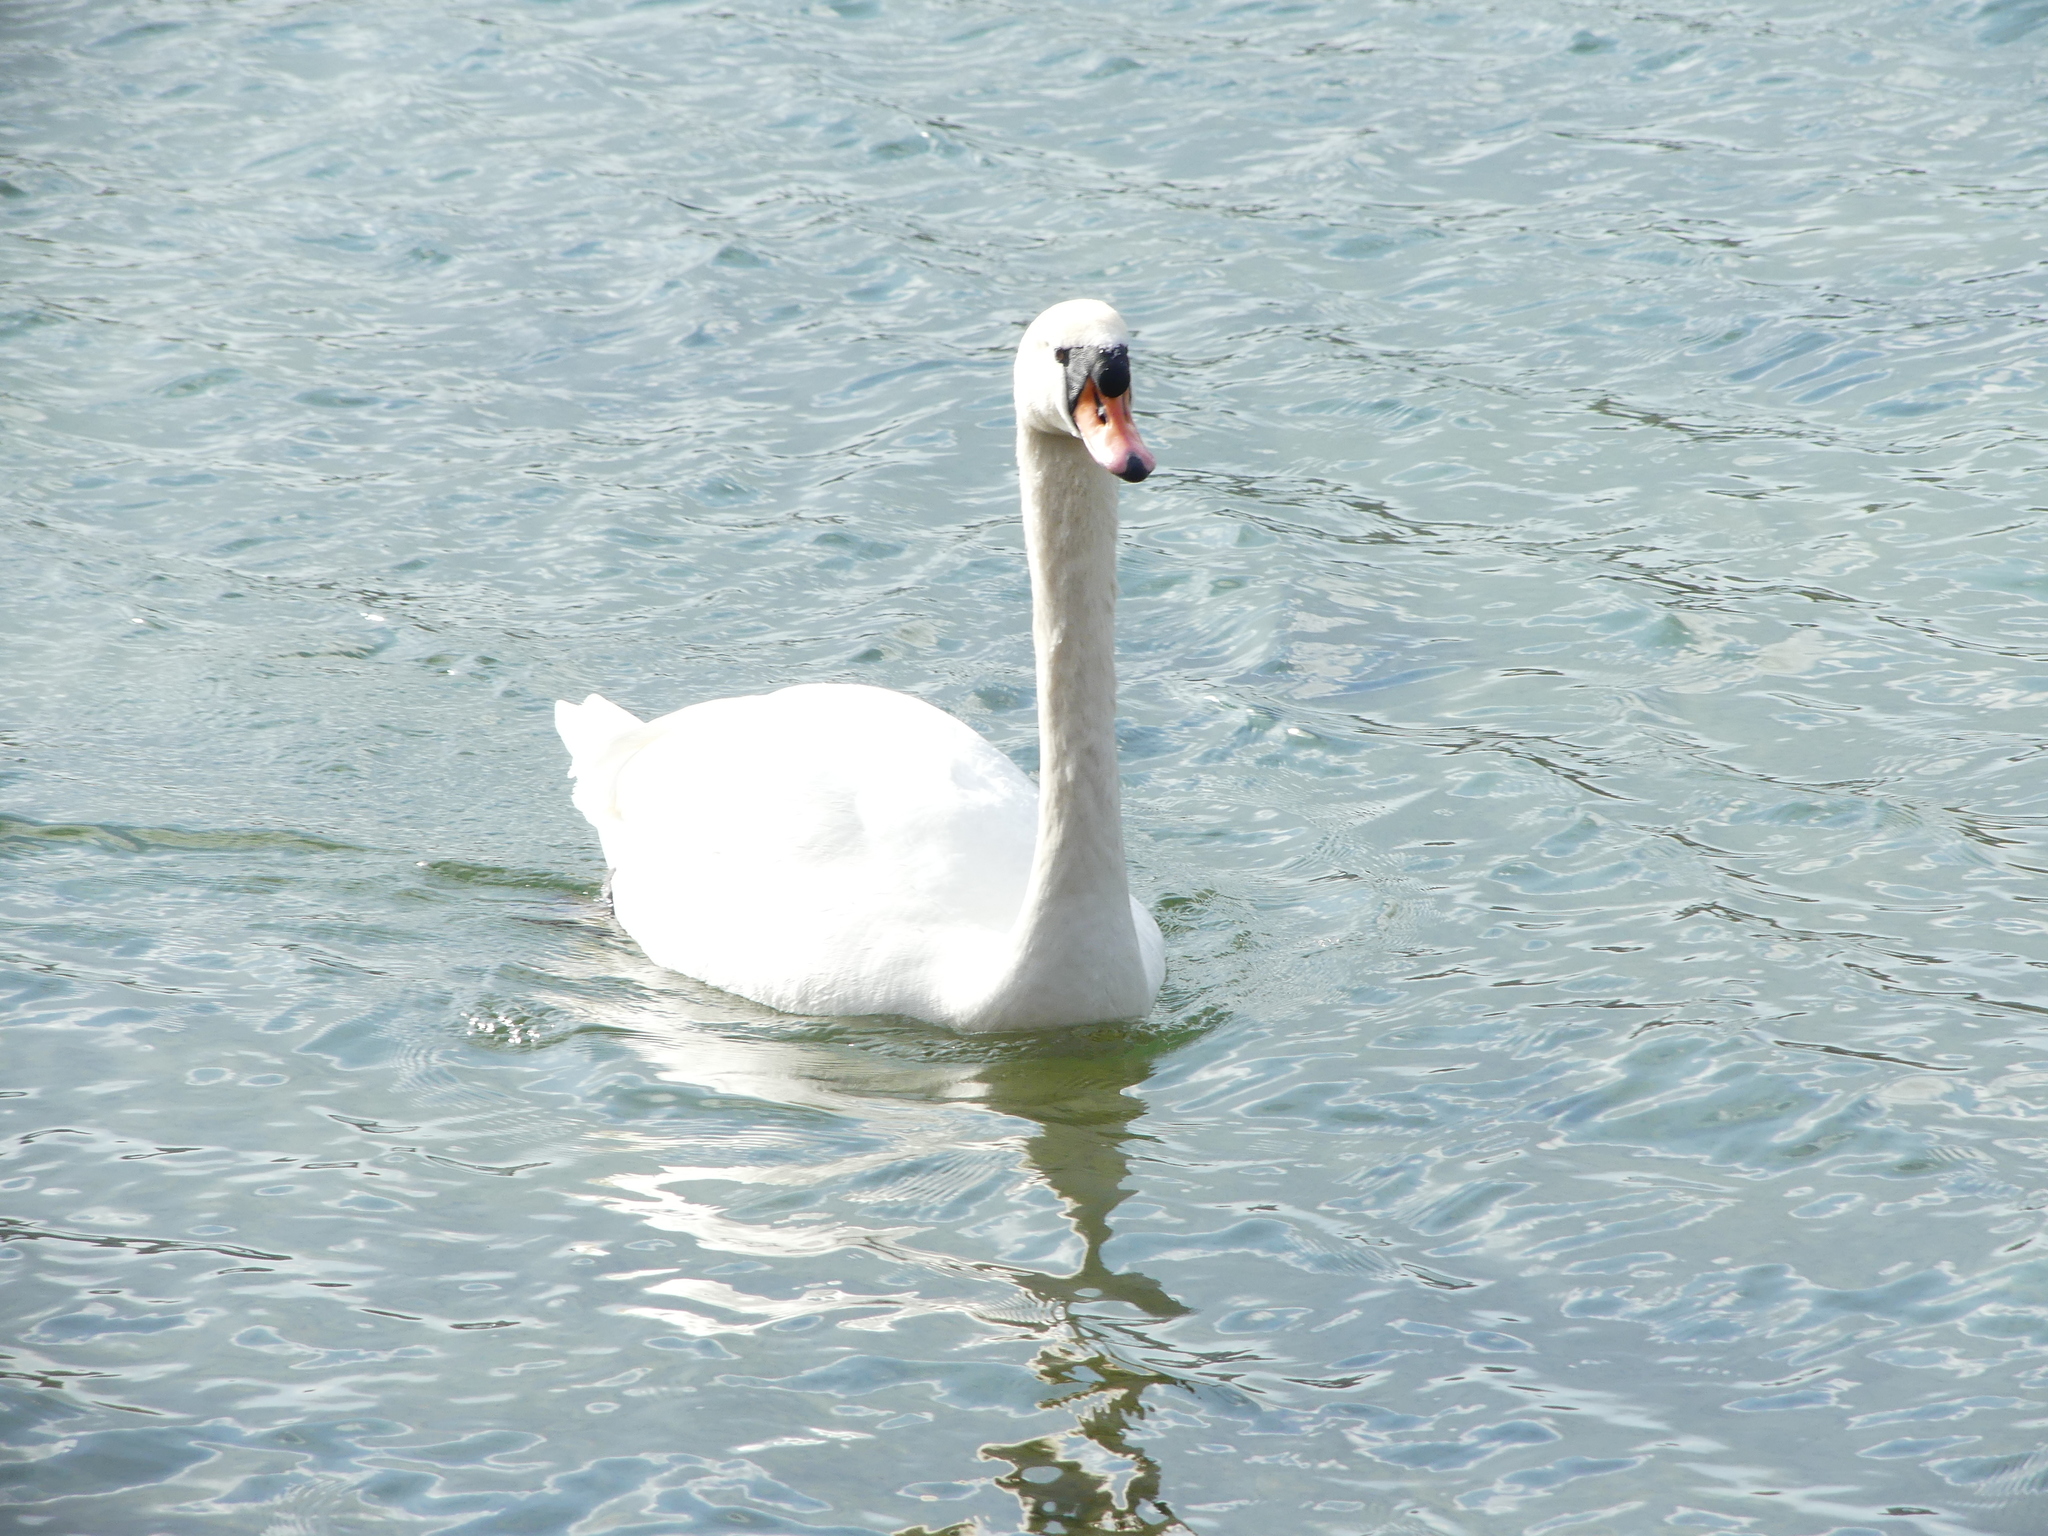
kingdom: Animalia
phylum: Chordata
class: Aves
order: Anseriformes
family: Anatidae
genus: Cygnus
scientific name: Cygnus olor
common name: Mute swan
